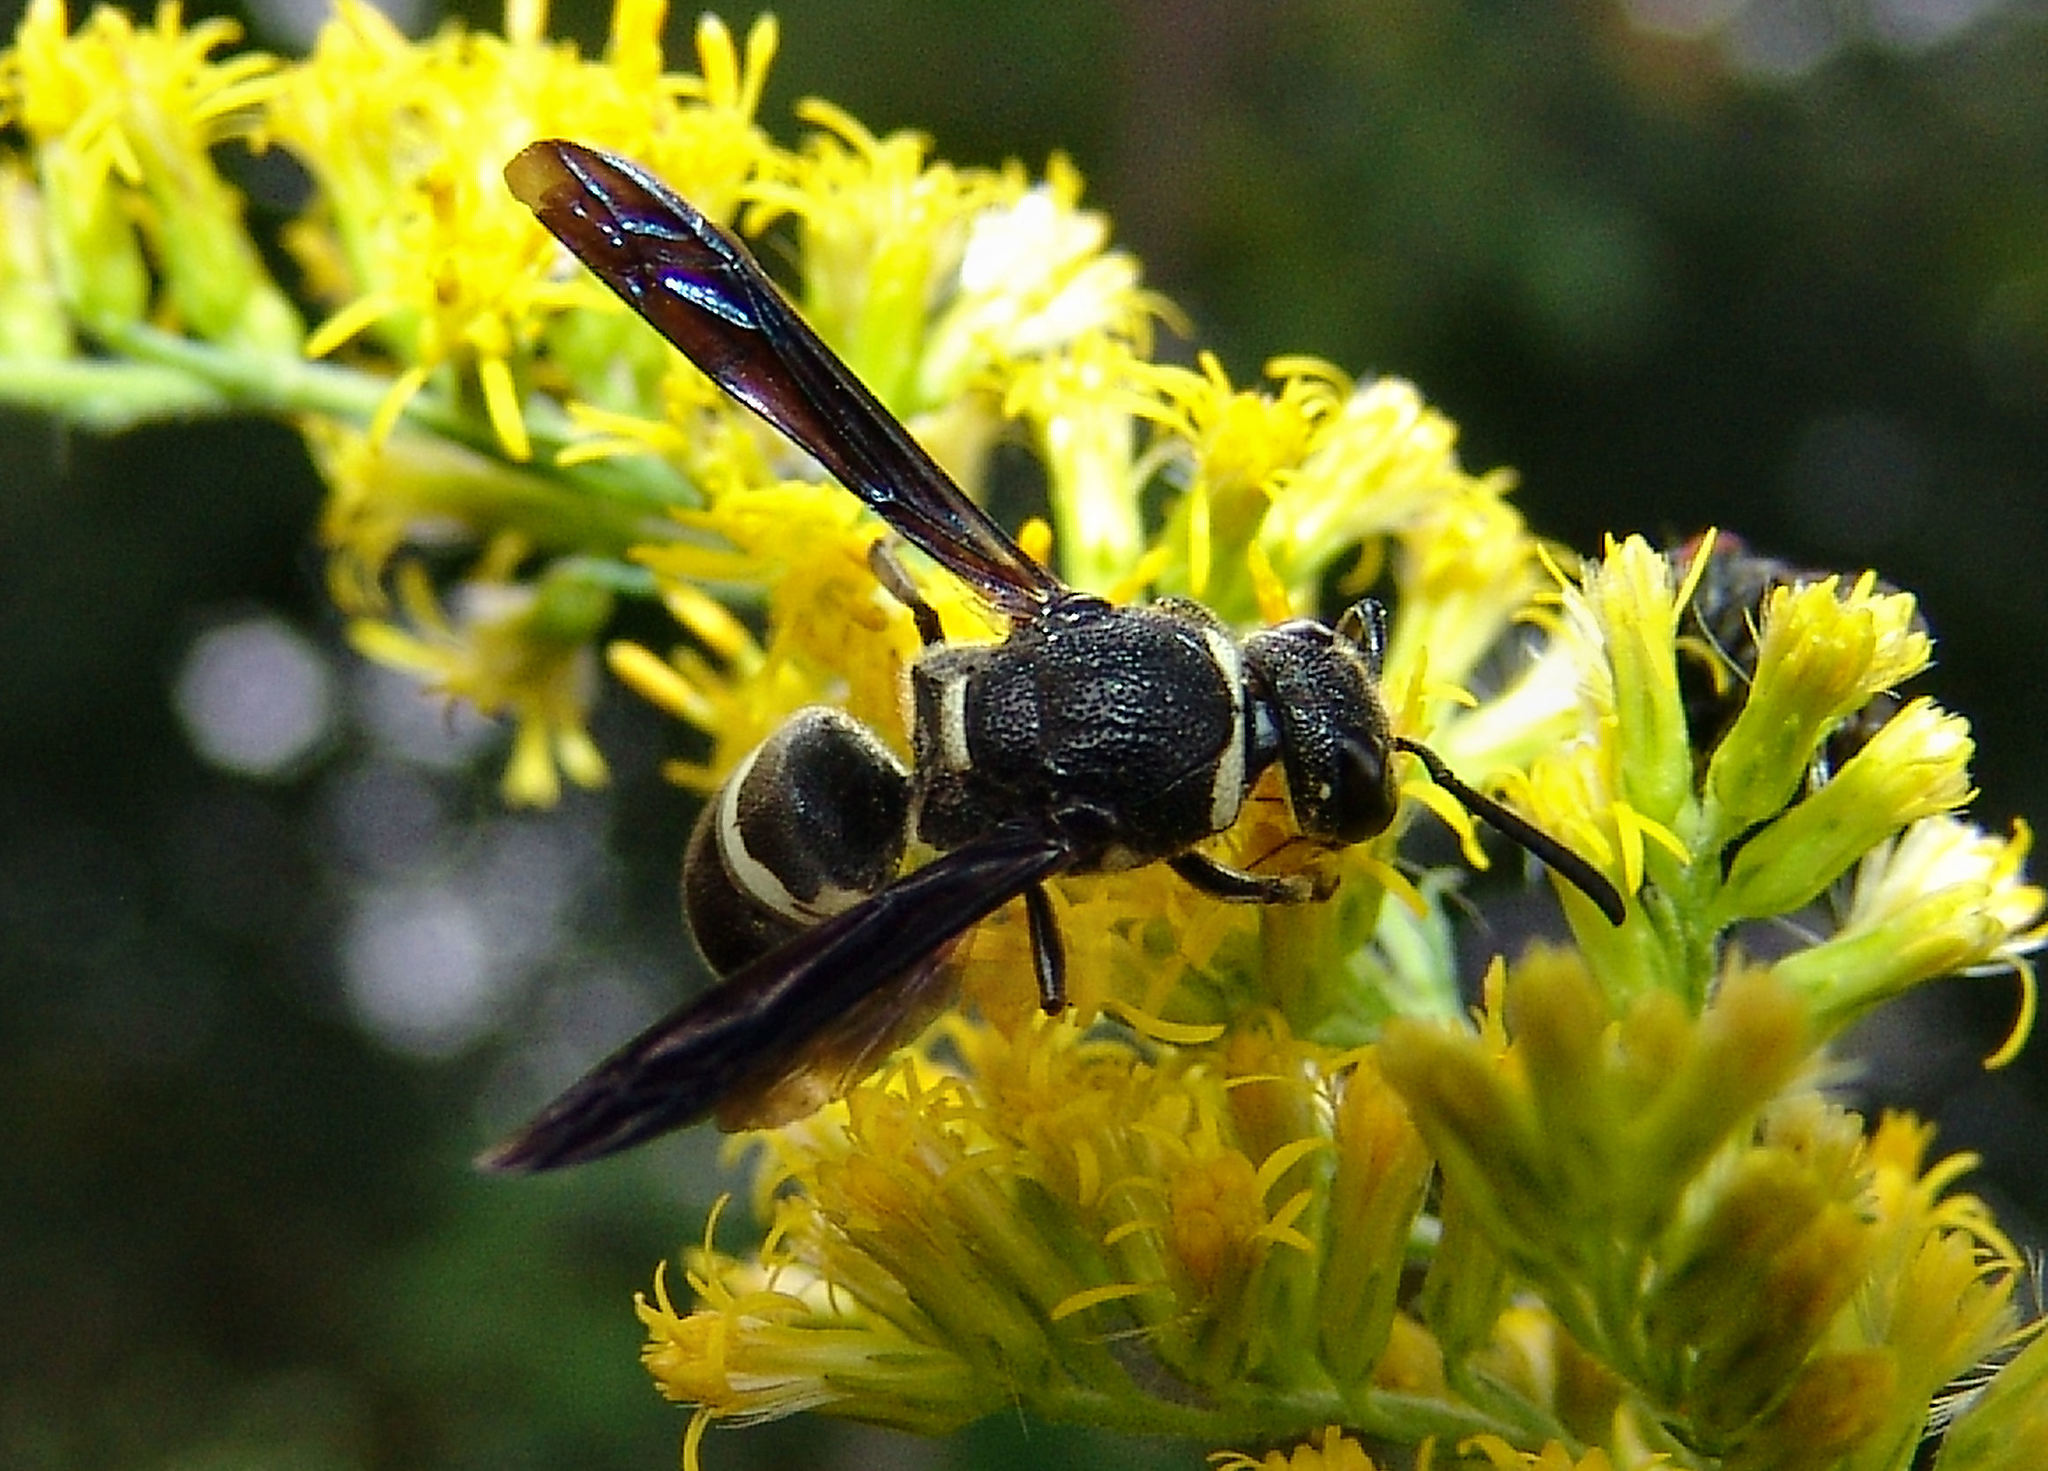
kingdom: Animalia
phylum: Arthropoda
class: Insecta
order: Hymenoptera
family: Eumenidae
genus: Euodynerus
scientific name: Euodynerus
